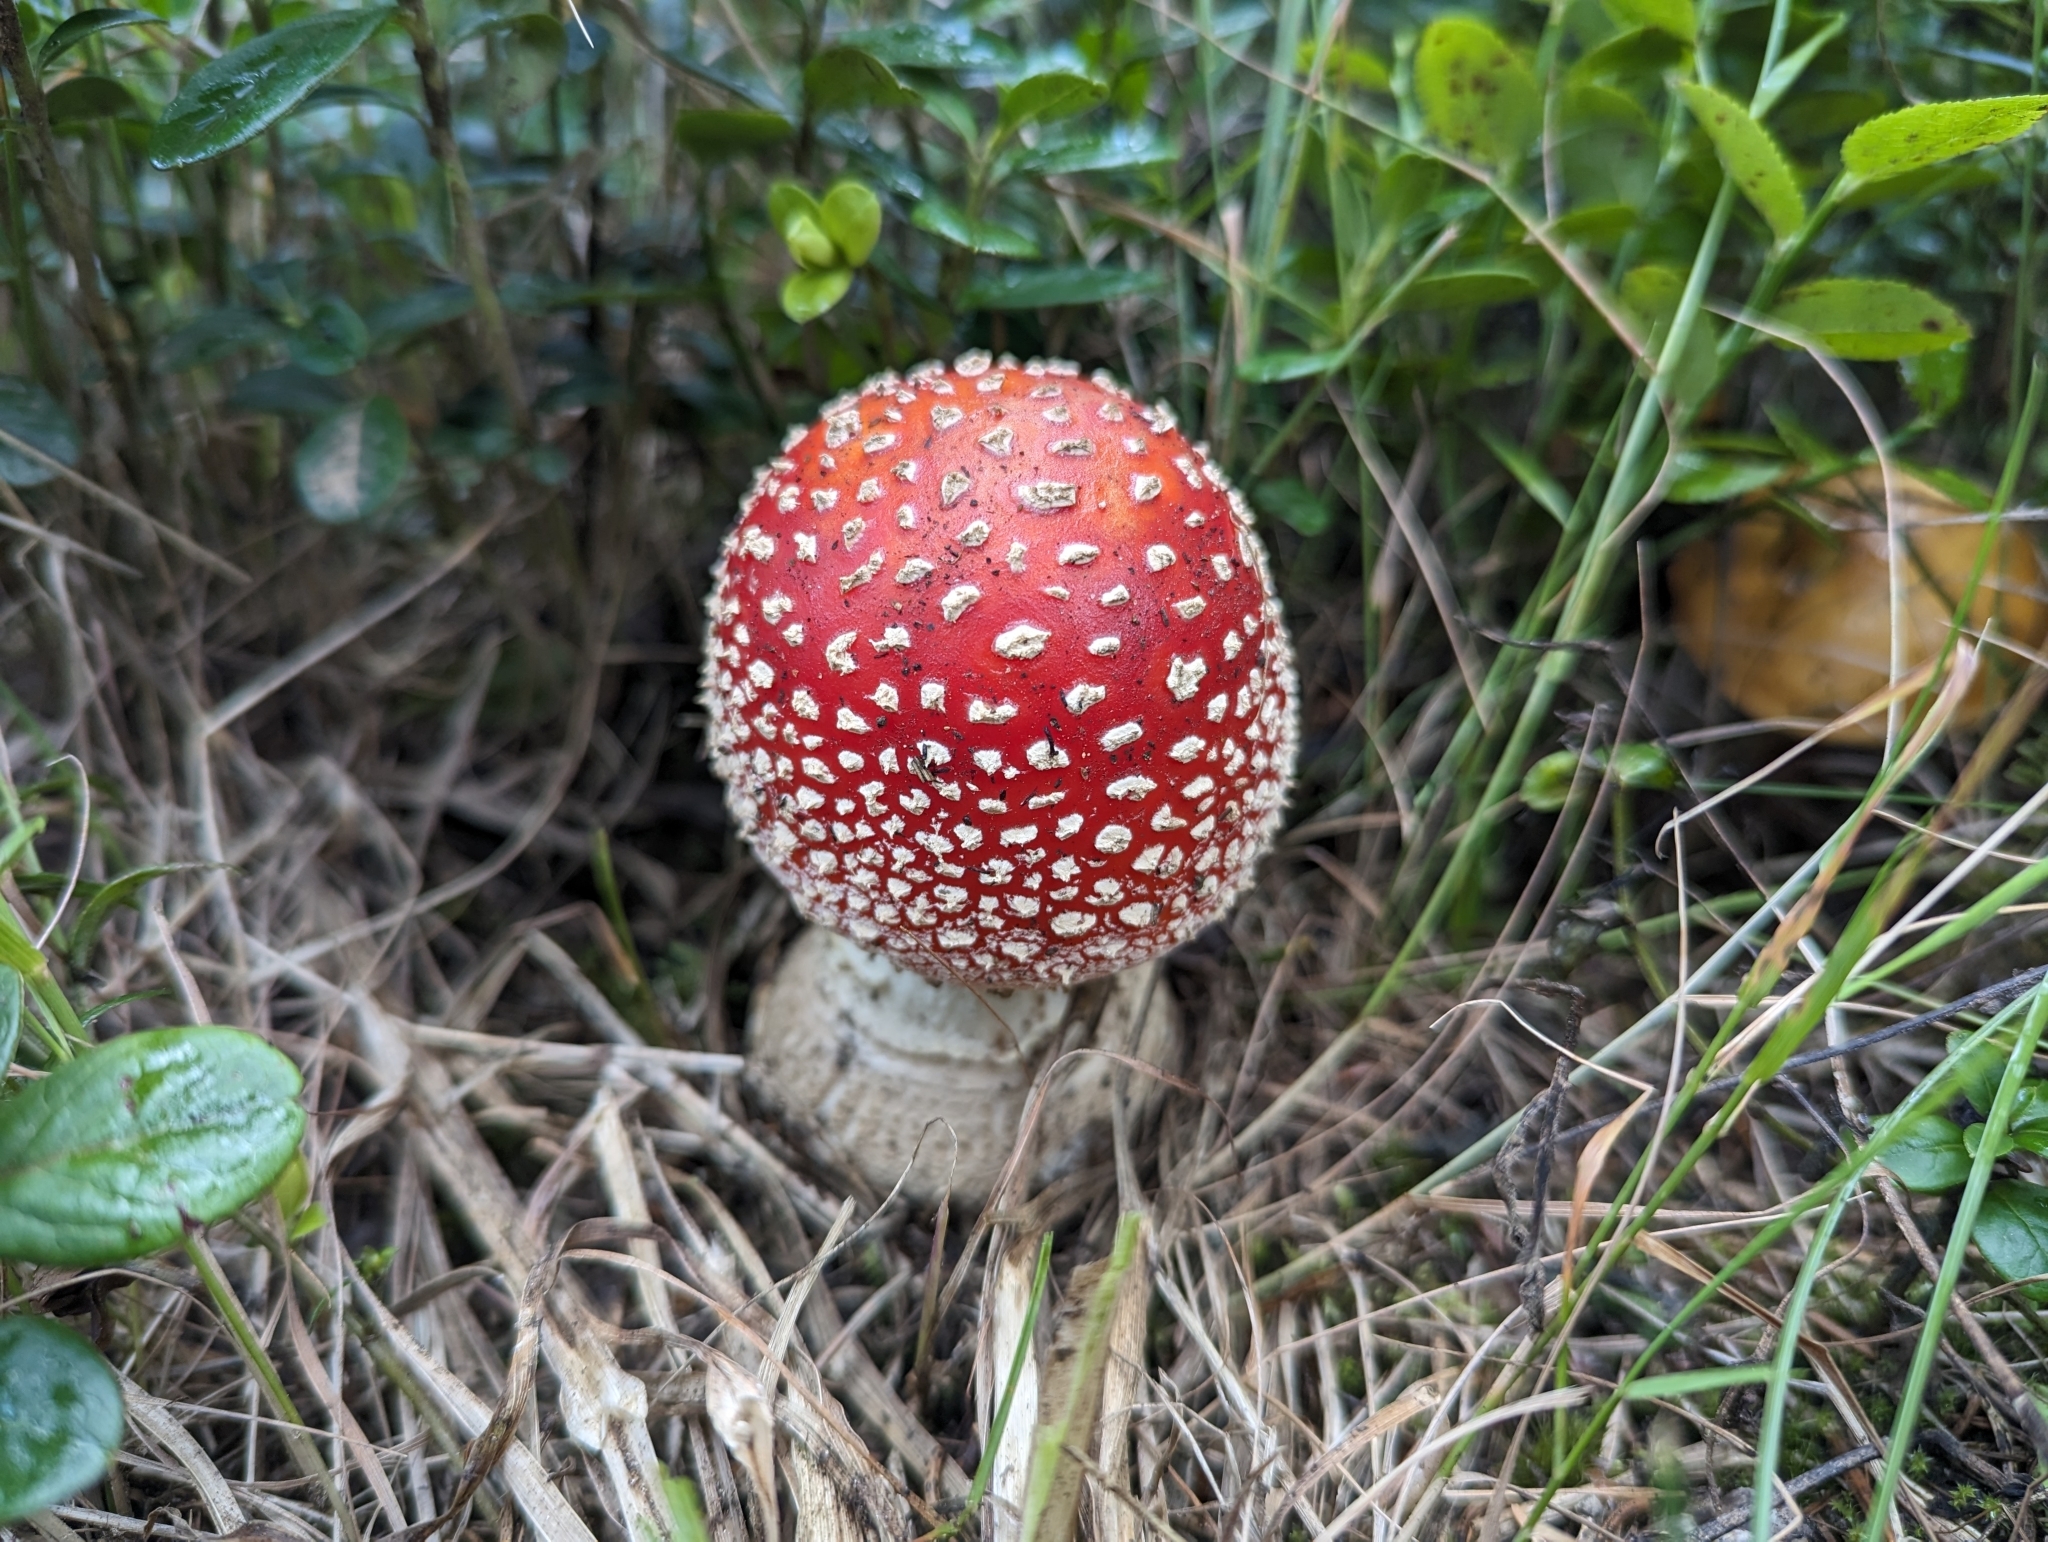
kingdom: Fungi
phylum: Basidiomycota
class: Agaricomycetes
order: Agaricales
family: Amanitaceae
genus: Amanita
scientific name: Amanita muscaria
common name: Fly agaric
